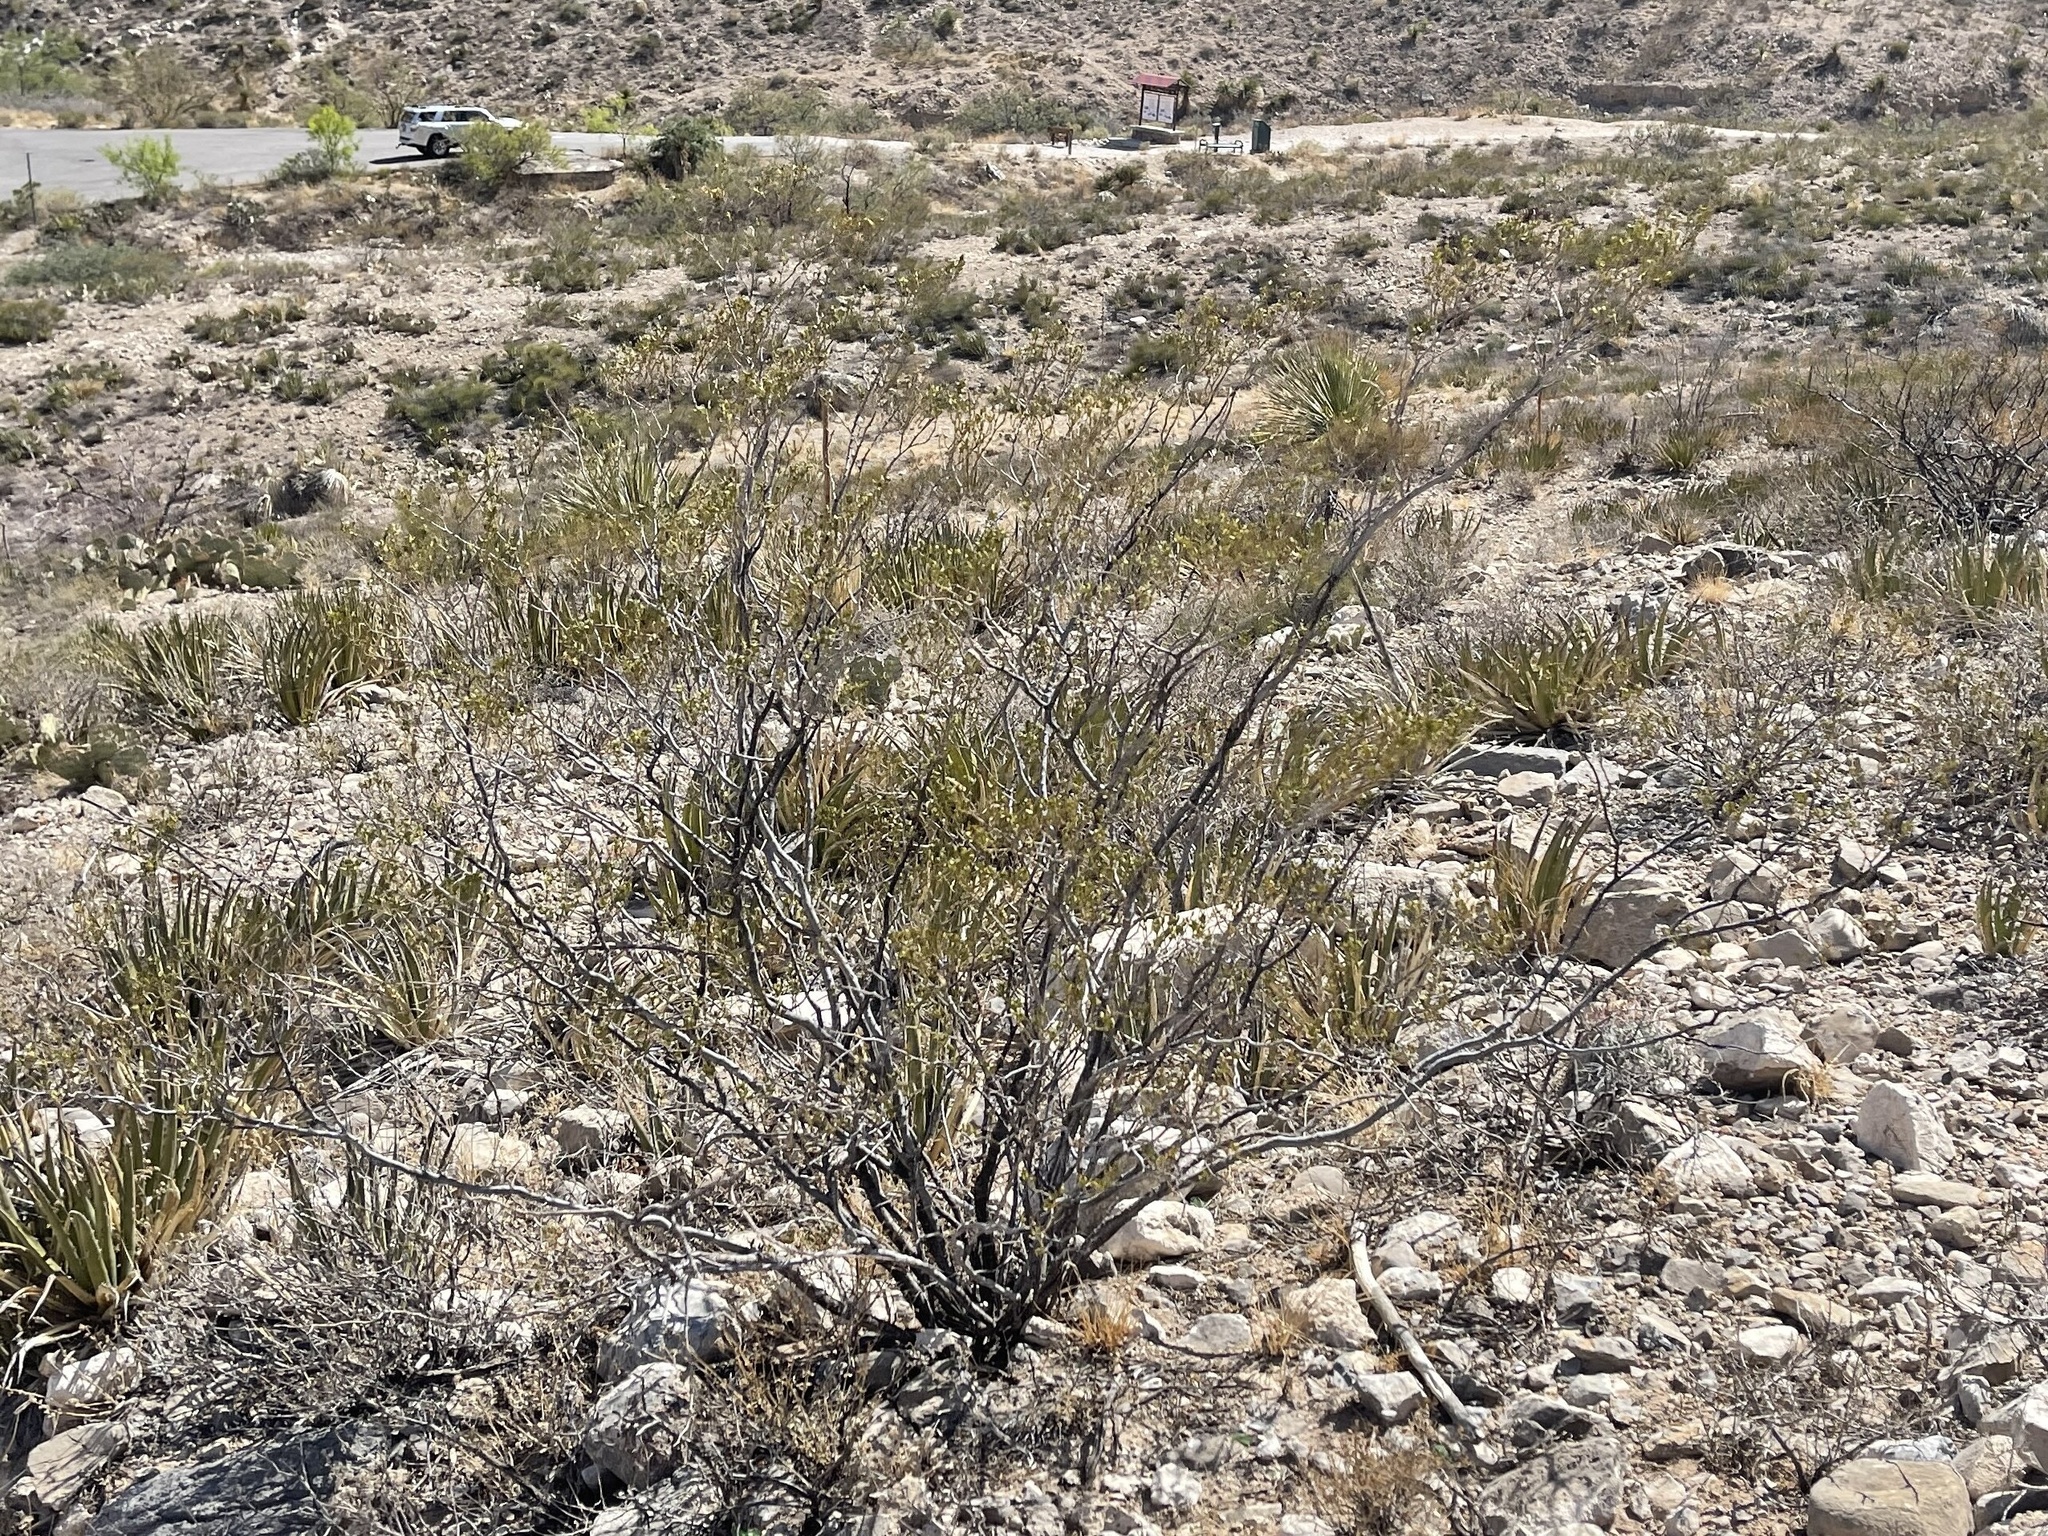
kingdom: Plantae
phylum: Tracheophyta
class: Magnoliopsida
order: Zygophyllales
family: Zygophyllaceae
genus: Larrea
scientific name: Larrea tridentata
